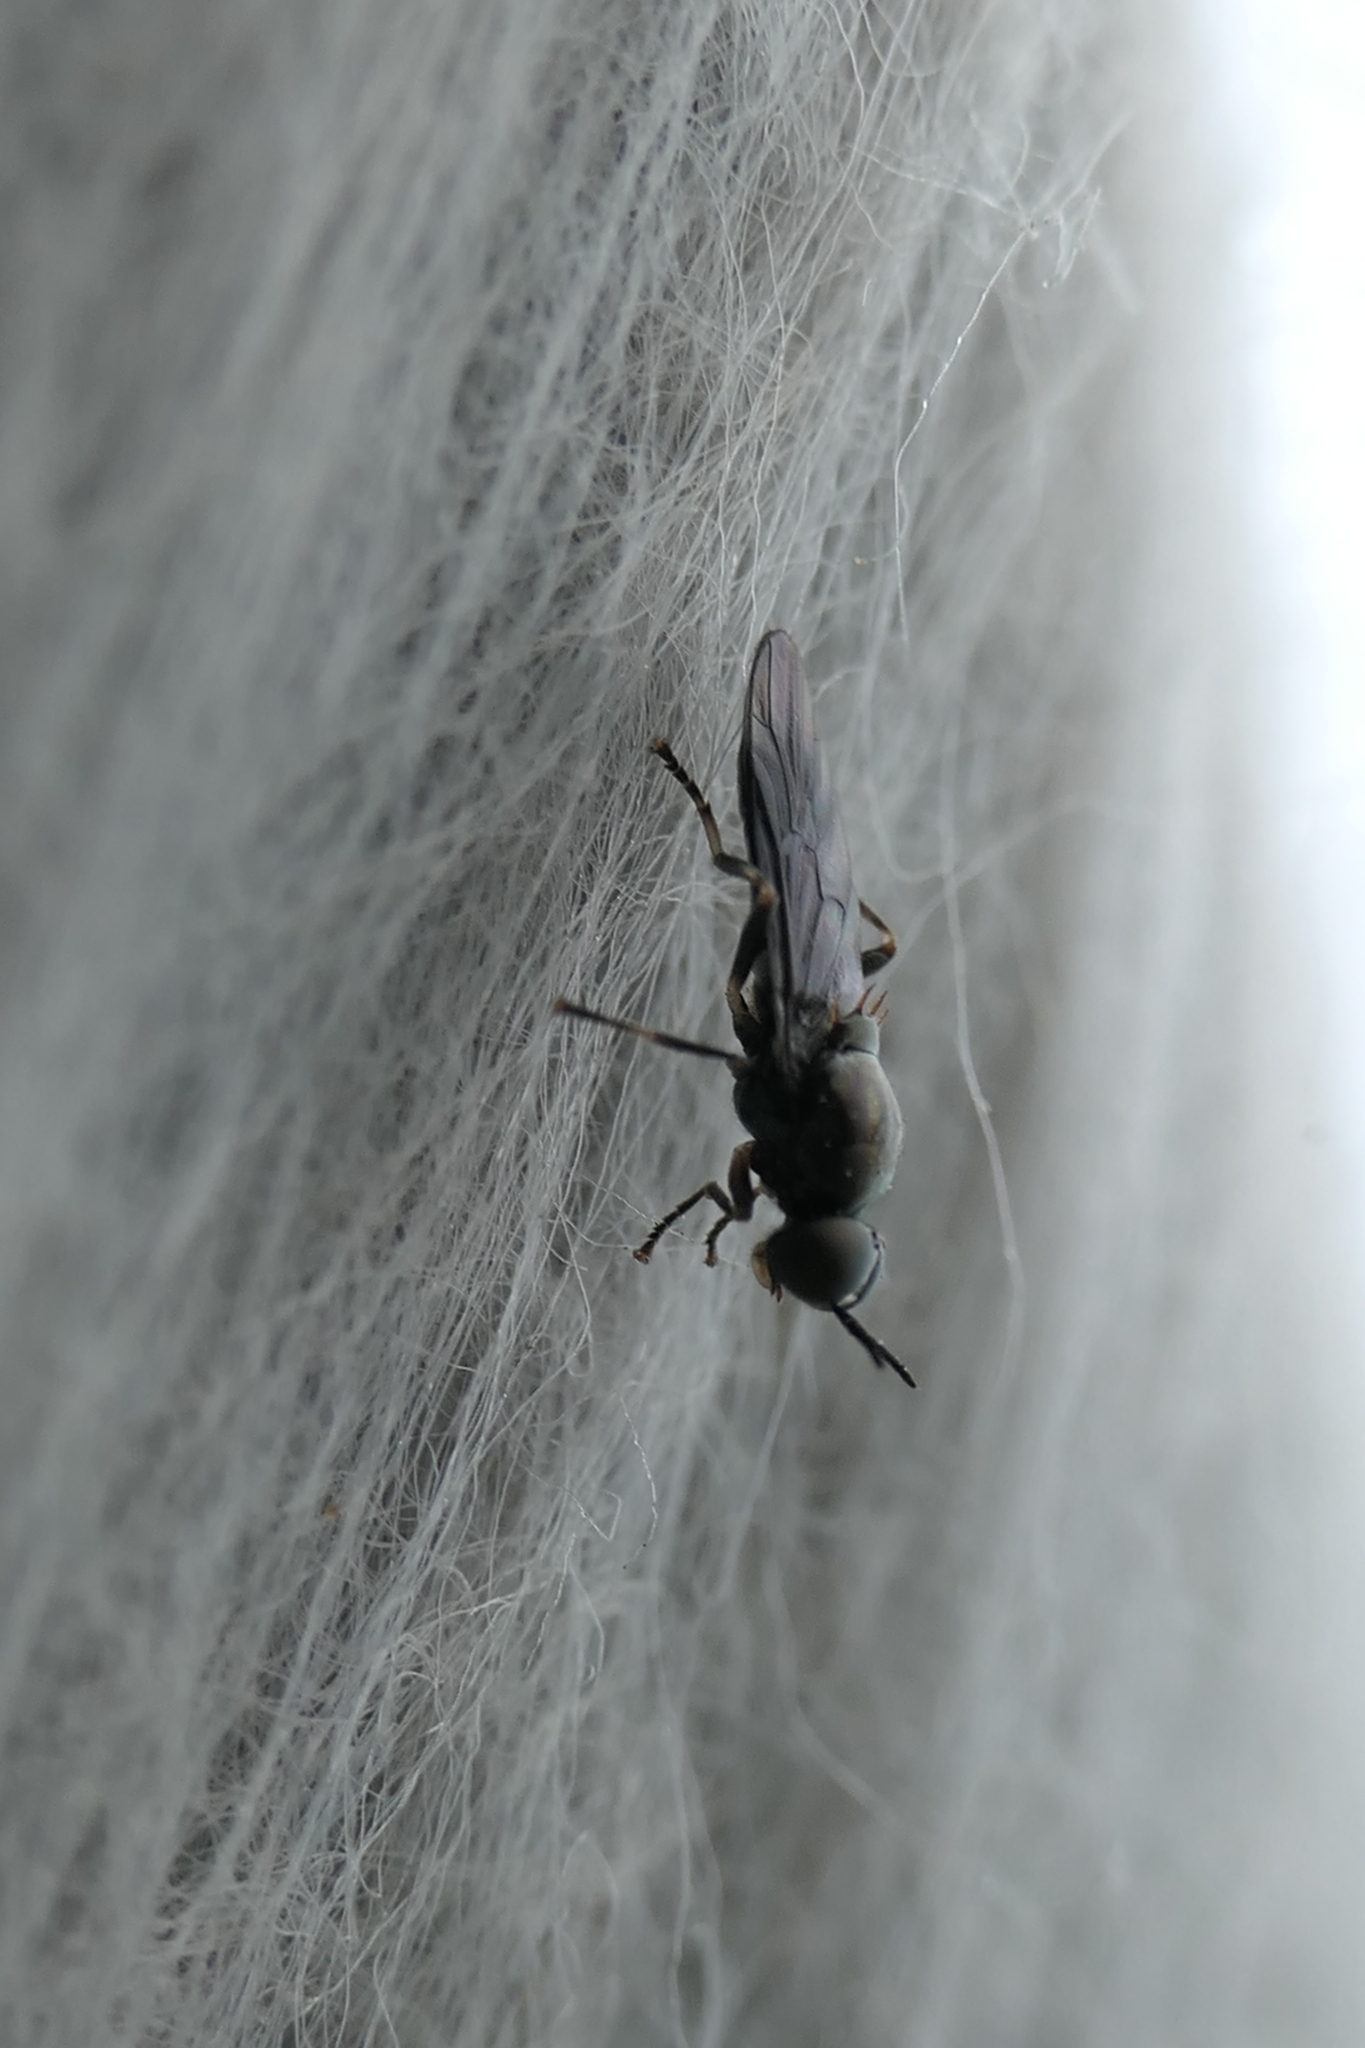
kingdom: Animalia
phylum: Arthropoda
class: Insecta
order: Diptera
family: Stratiomyidae
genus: Zealandoberis
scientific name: Zealandoberis violacea
